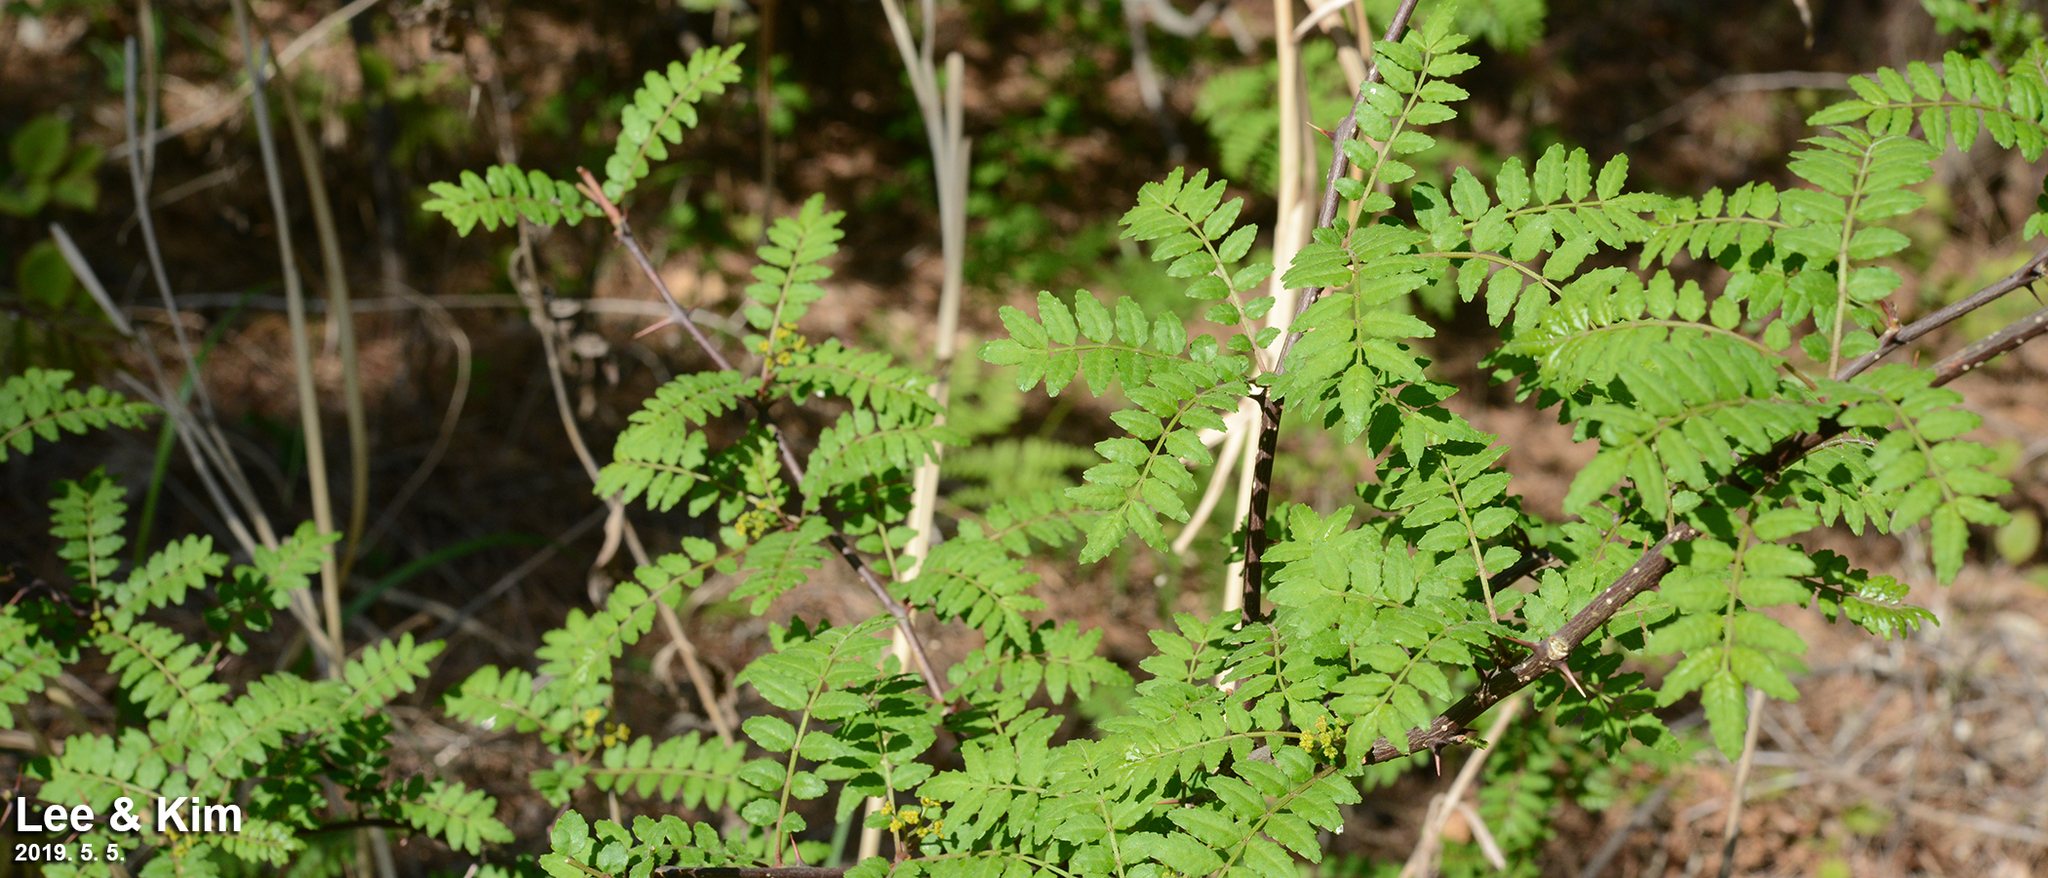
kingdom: Plantae
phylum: Tracheophyta
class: Magnoliopsida
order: Sapindales
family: Rutaceae
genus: Zanthoxylum
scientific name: Zanthoxylum piperitum
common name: Japanese-pepper
